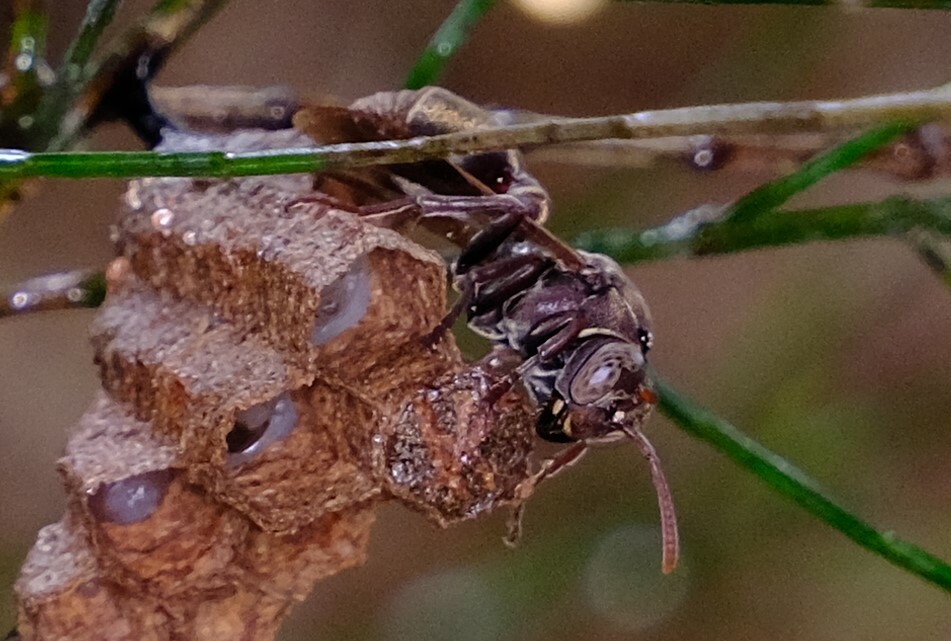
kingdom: Animalia
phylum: Arthropoda
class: Insecta
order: Hymenoptera
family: Vespidae
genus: Ropalidia
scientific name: Ropalidia revolutionalis
